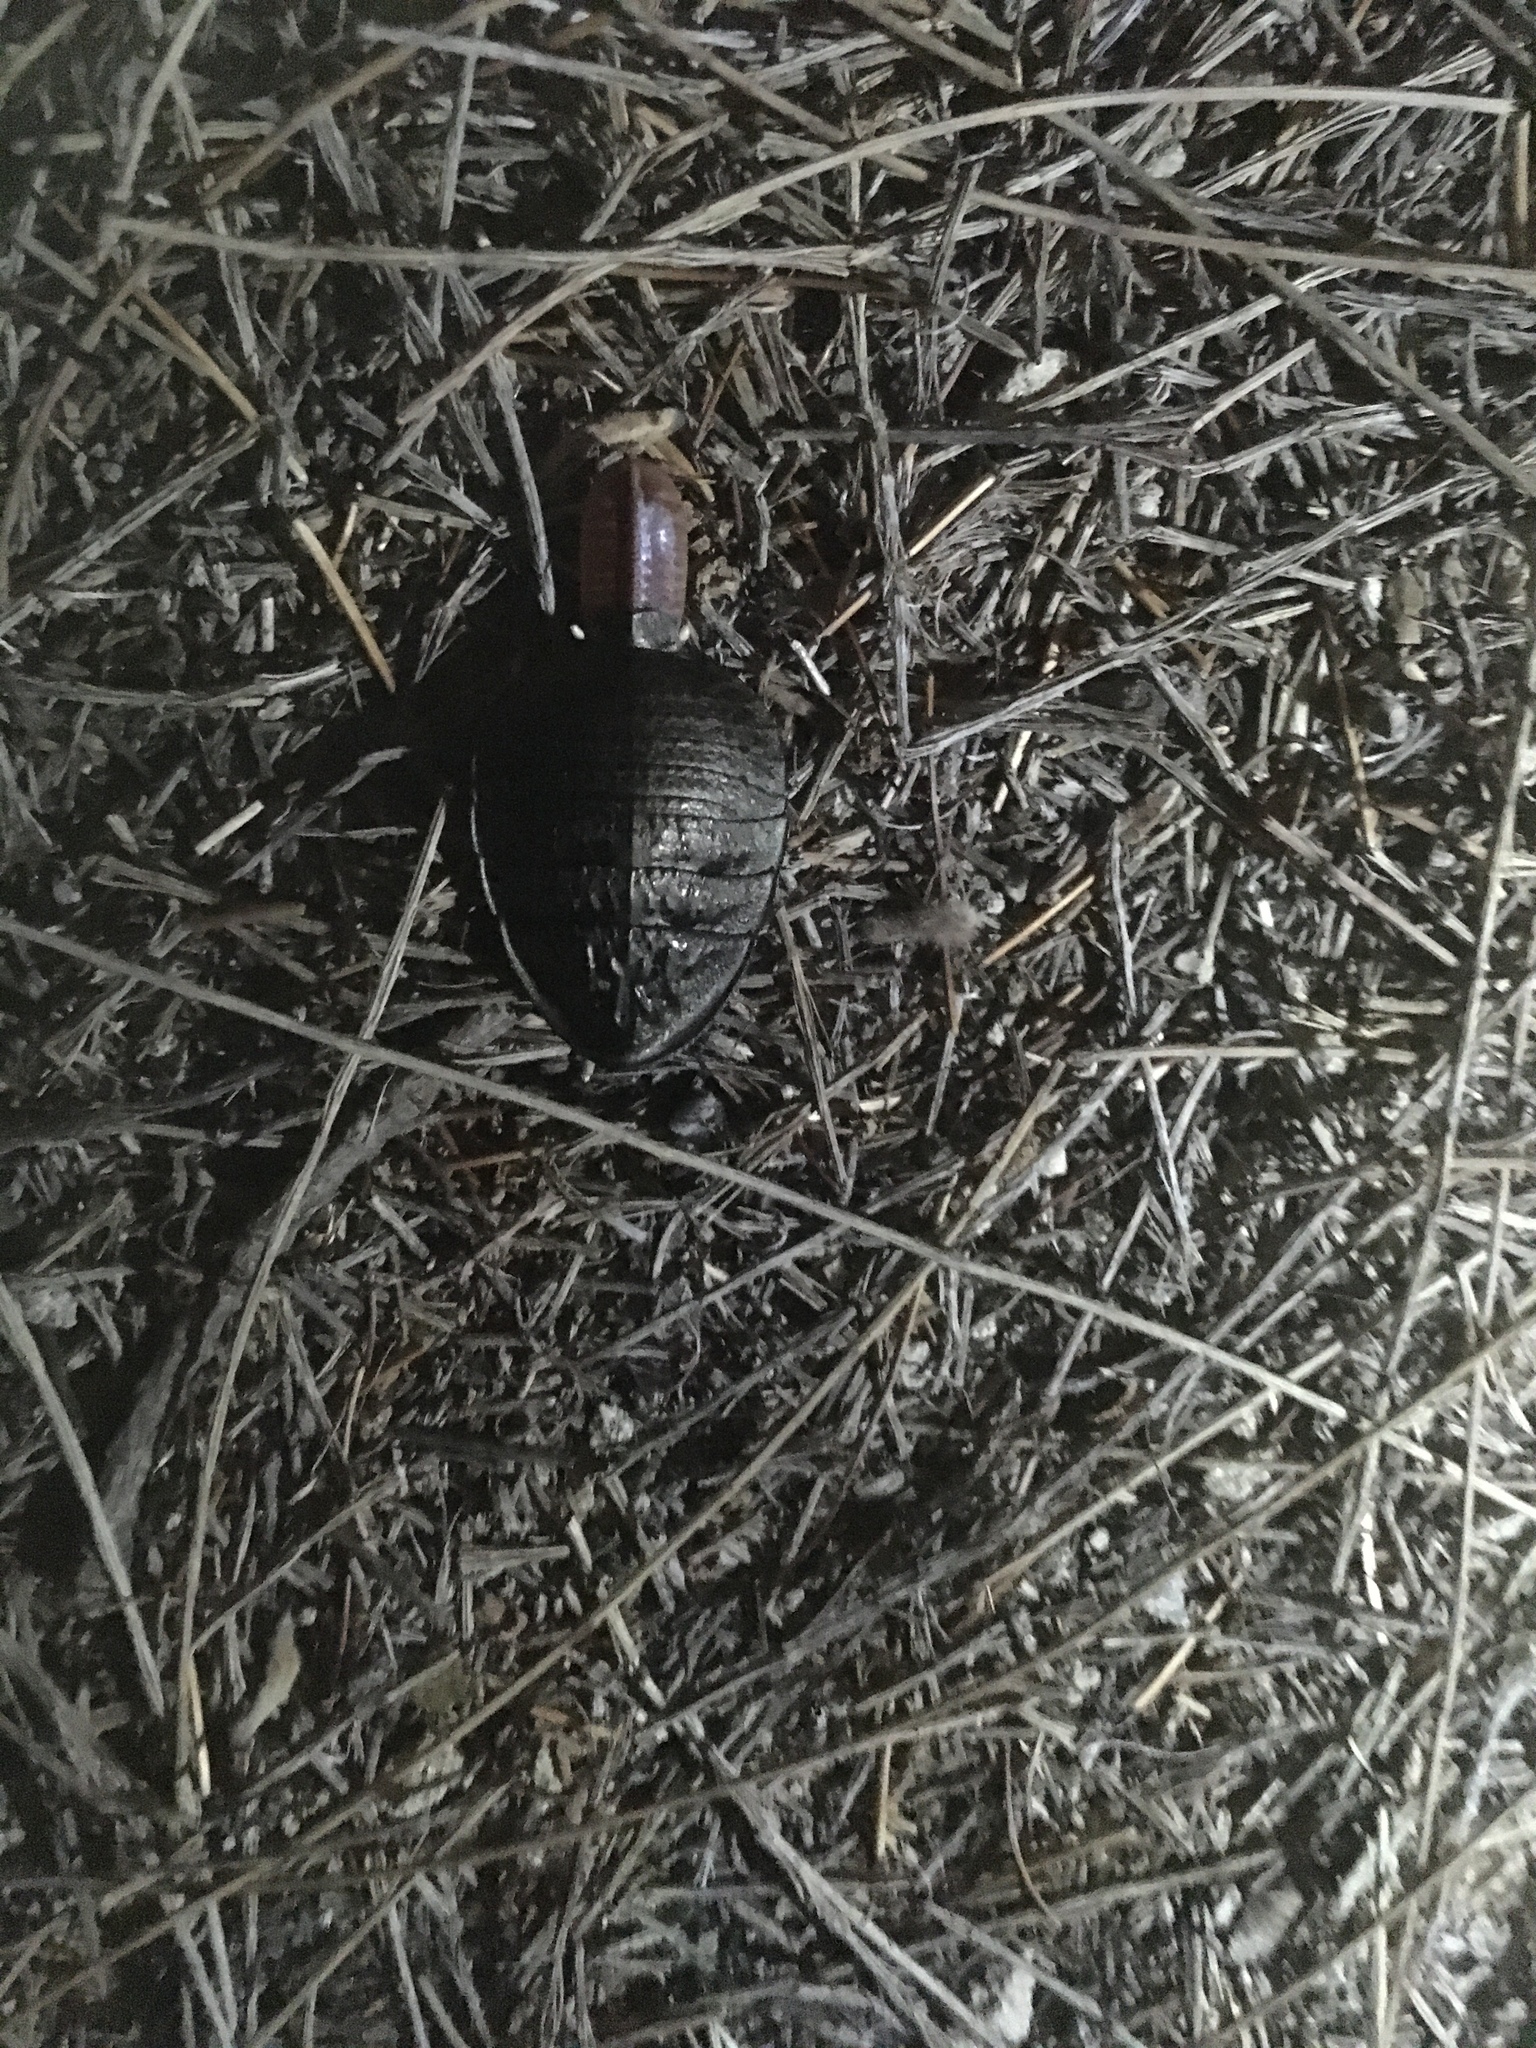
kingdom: Animalia
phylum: Arthropoda
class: Insecta
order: Blattodea
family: Blattidae
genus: Euzosteria
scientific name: Euzosteria lata
